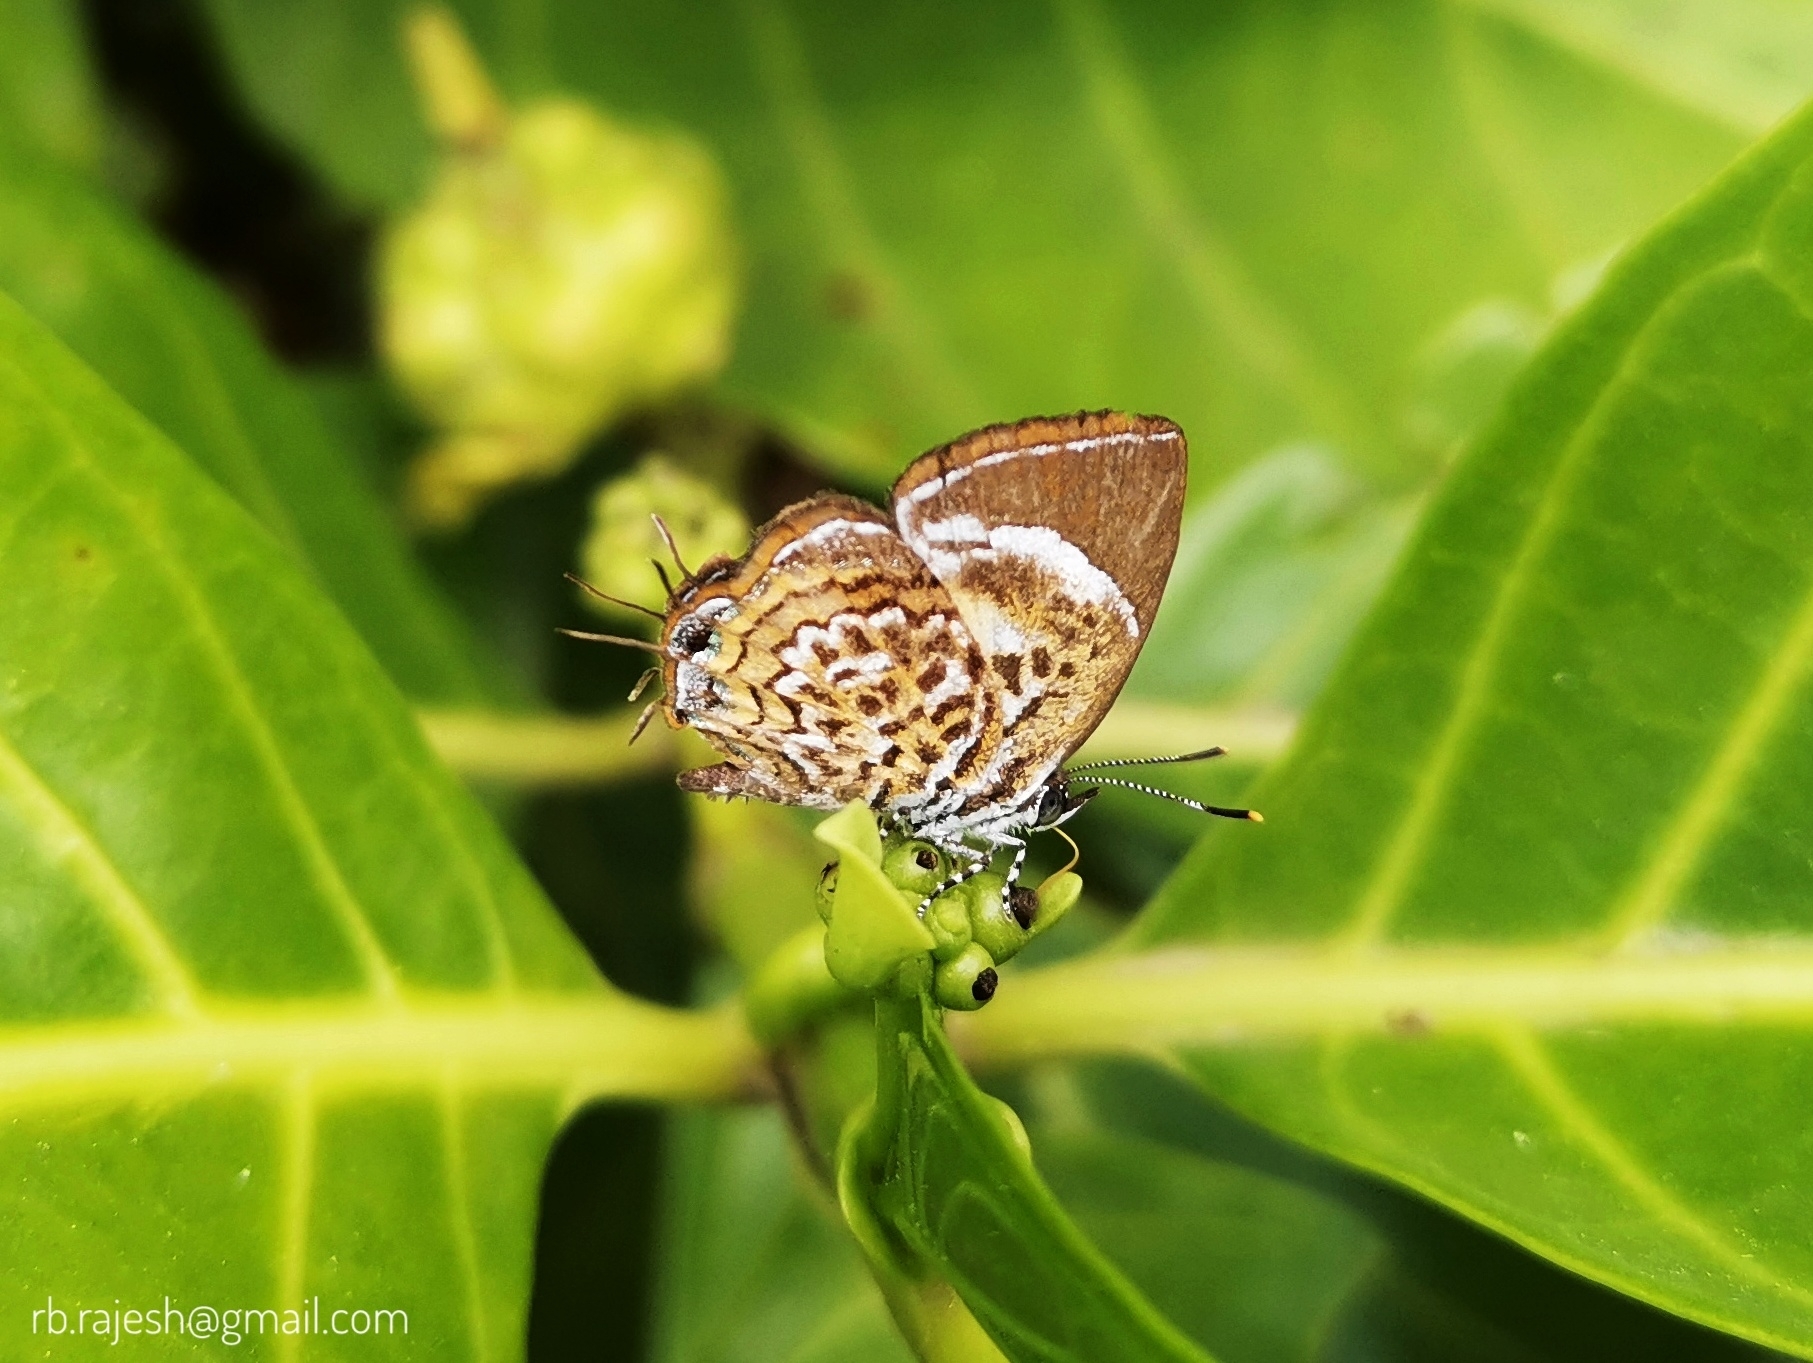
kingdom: Animalia
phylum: Arthropoda
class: Insecta
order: Lepidoptera
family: Lycaenidae
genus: Rathinda
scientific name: Rathinda amor
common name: Monkey puzzle
